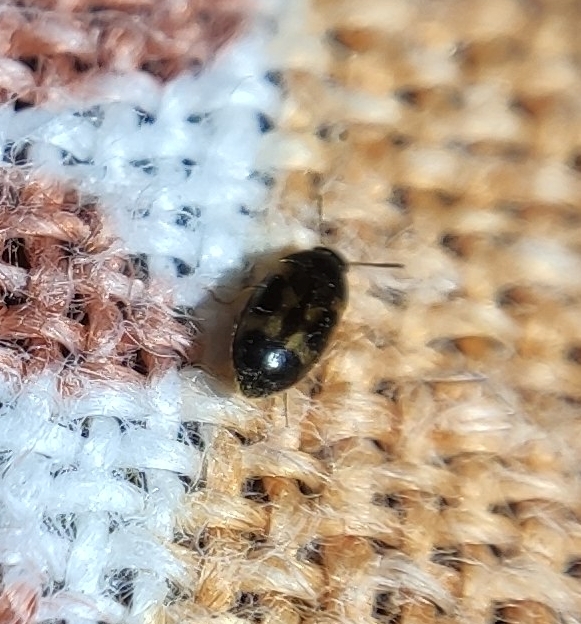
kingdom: Animalia
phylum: Arthropoda
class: Insecta
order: Coleoptera
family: Mycetophagidae
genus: Litargus
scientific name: Litargus balteatus
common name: Stored grain hairy fungus beetle
